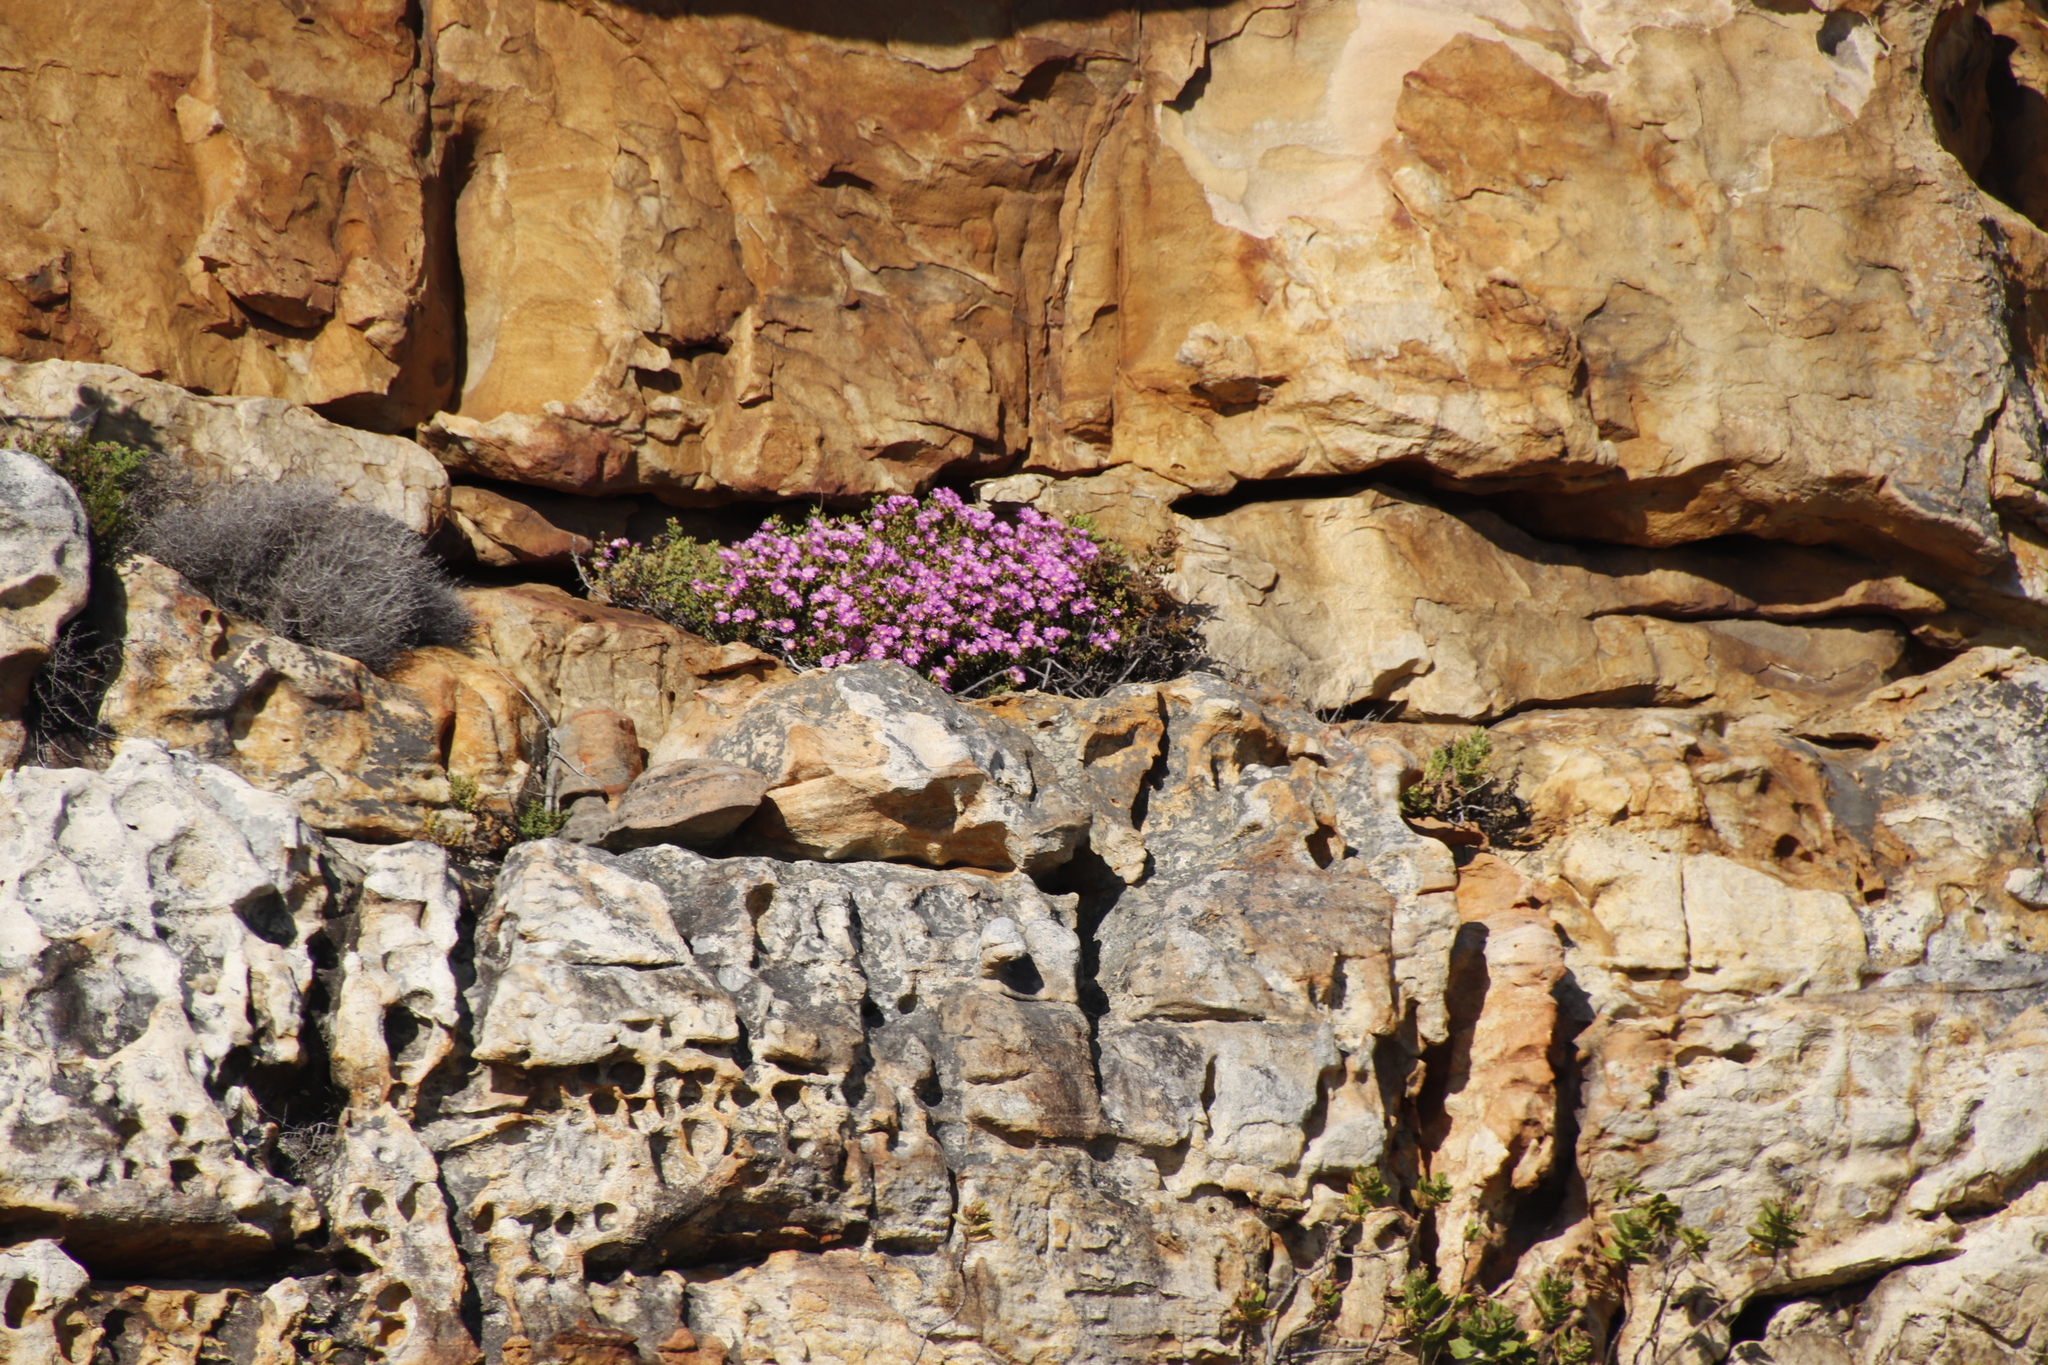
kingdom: Plantae
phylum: Tracheophyta
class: Magnoliopsida
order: Caryophyllales
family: Aizoaceae
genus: Oscularia
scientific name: Oscularia falciformis
